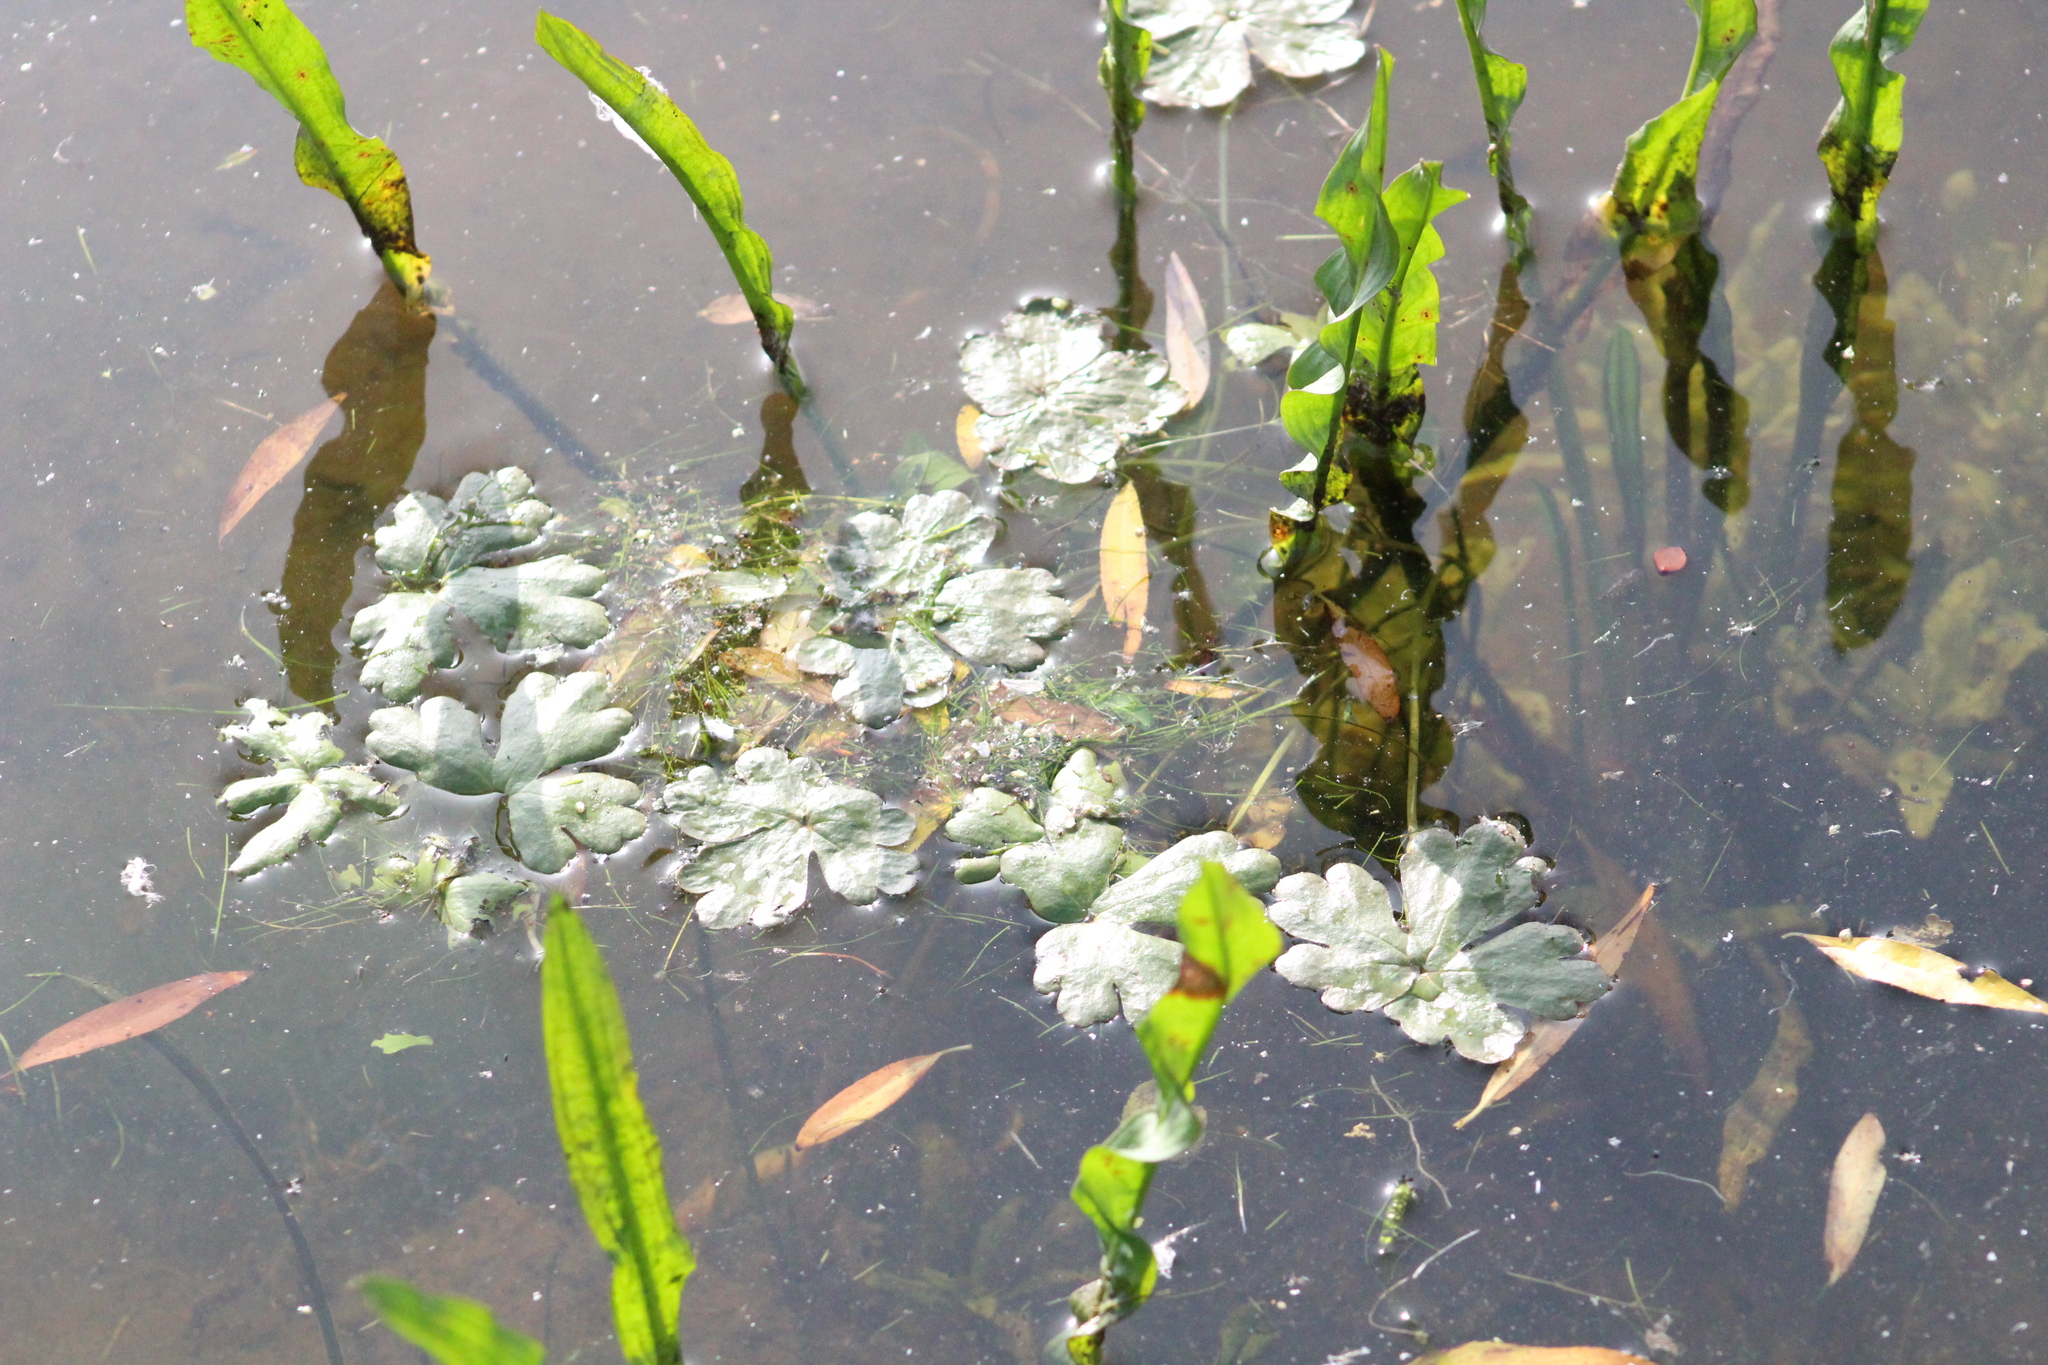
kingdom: Plantae
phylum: Tracheophyta
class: Magnoliopsida
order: Ranunculales
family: Ranunculaceae
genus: Ranunculus
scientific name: Ranunculus sceleratus
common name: Celery-leaved buttercup
